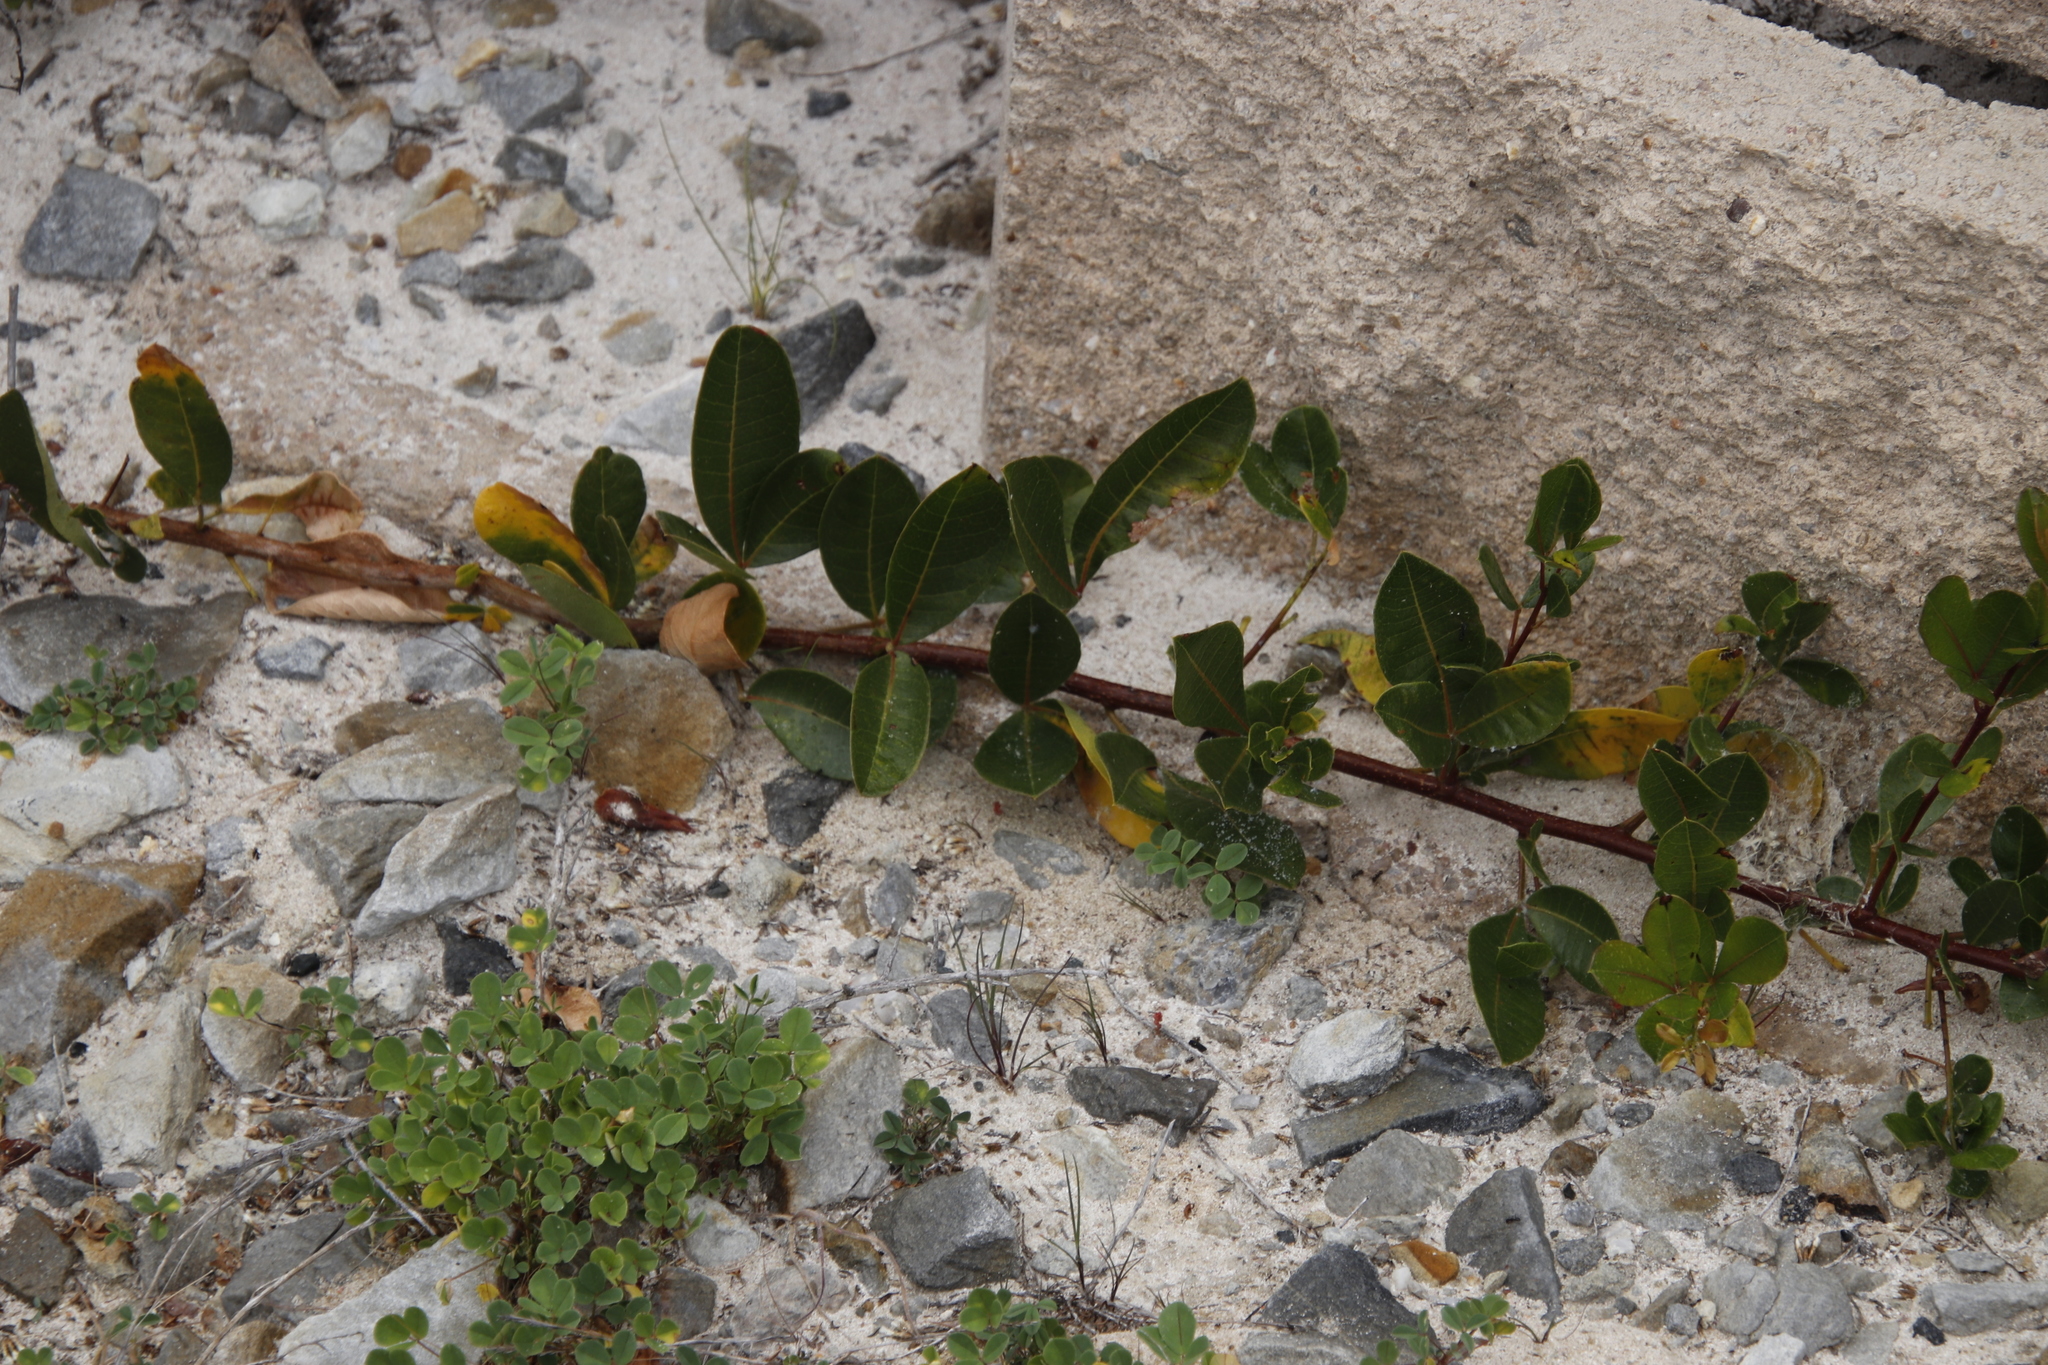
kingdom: Plantae
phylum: Tracheophyta
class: Magnoliopsida
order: Sapindales
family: Anacardiaceae
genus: Searsia
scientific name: Searsia laevigata
